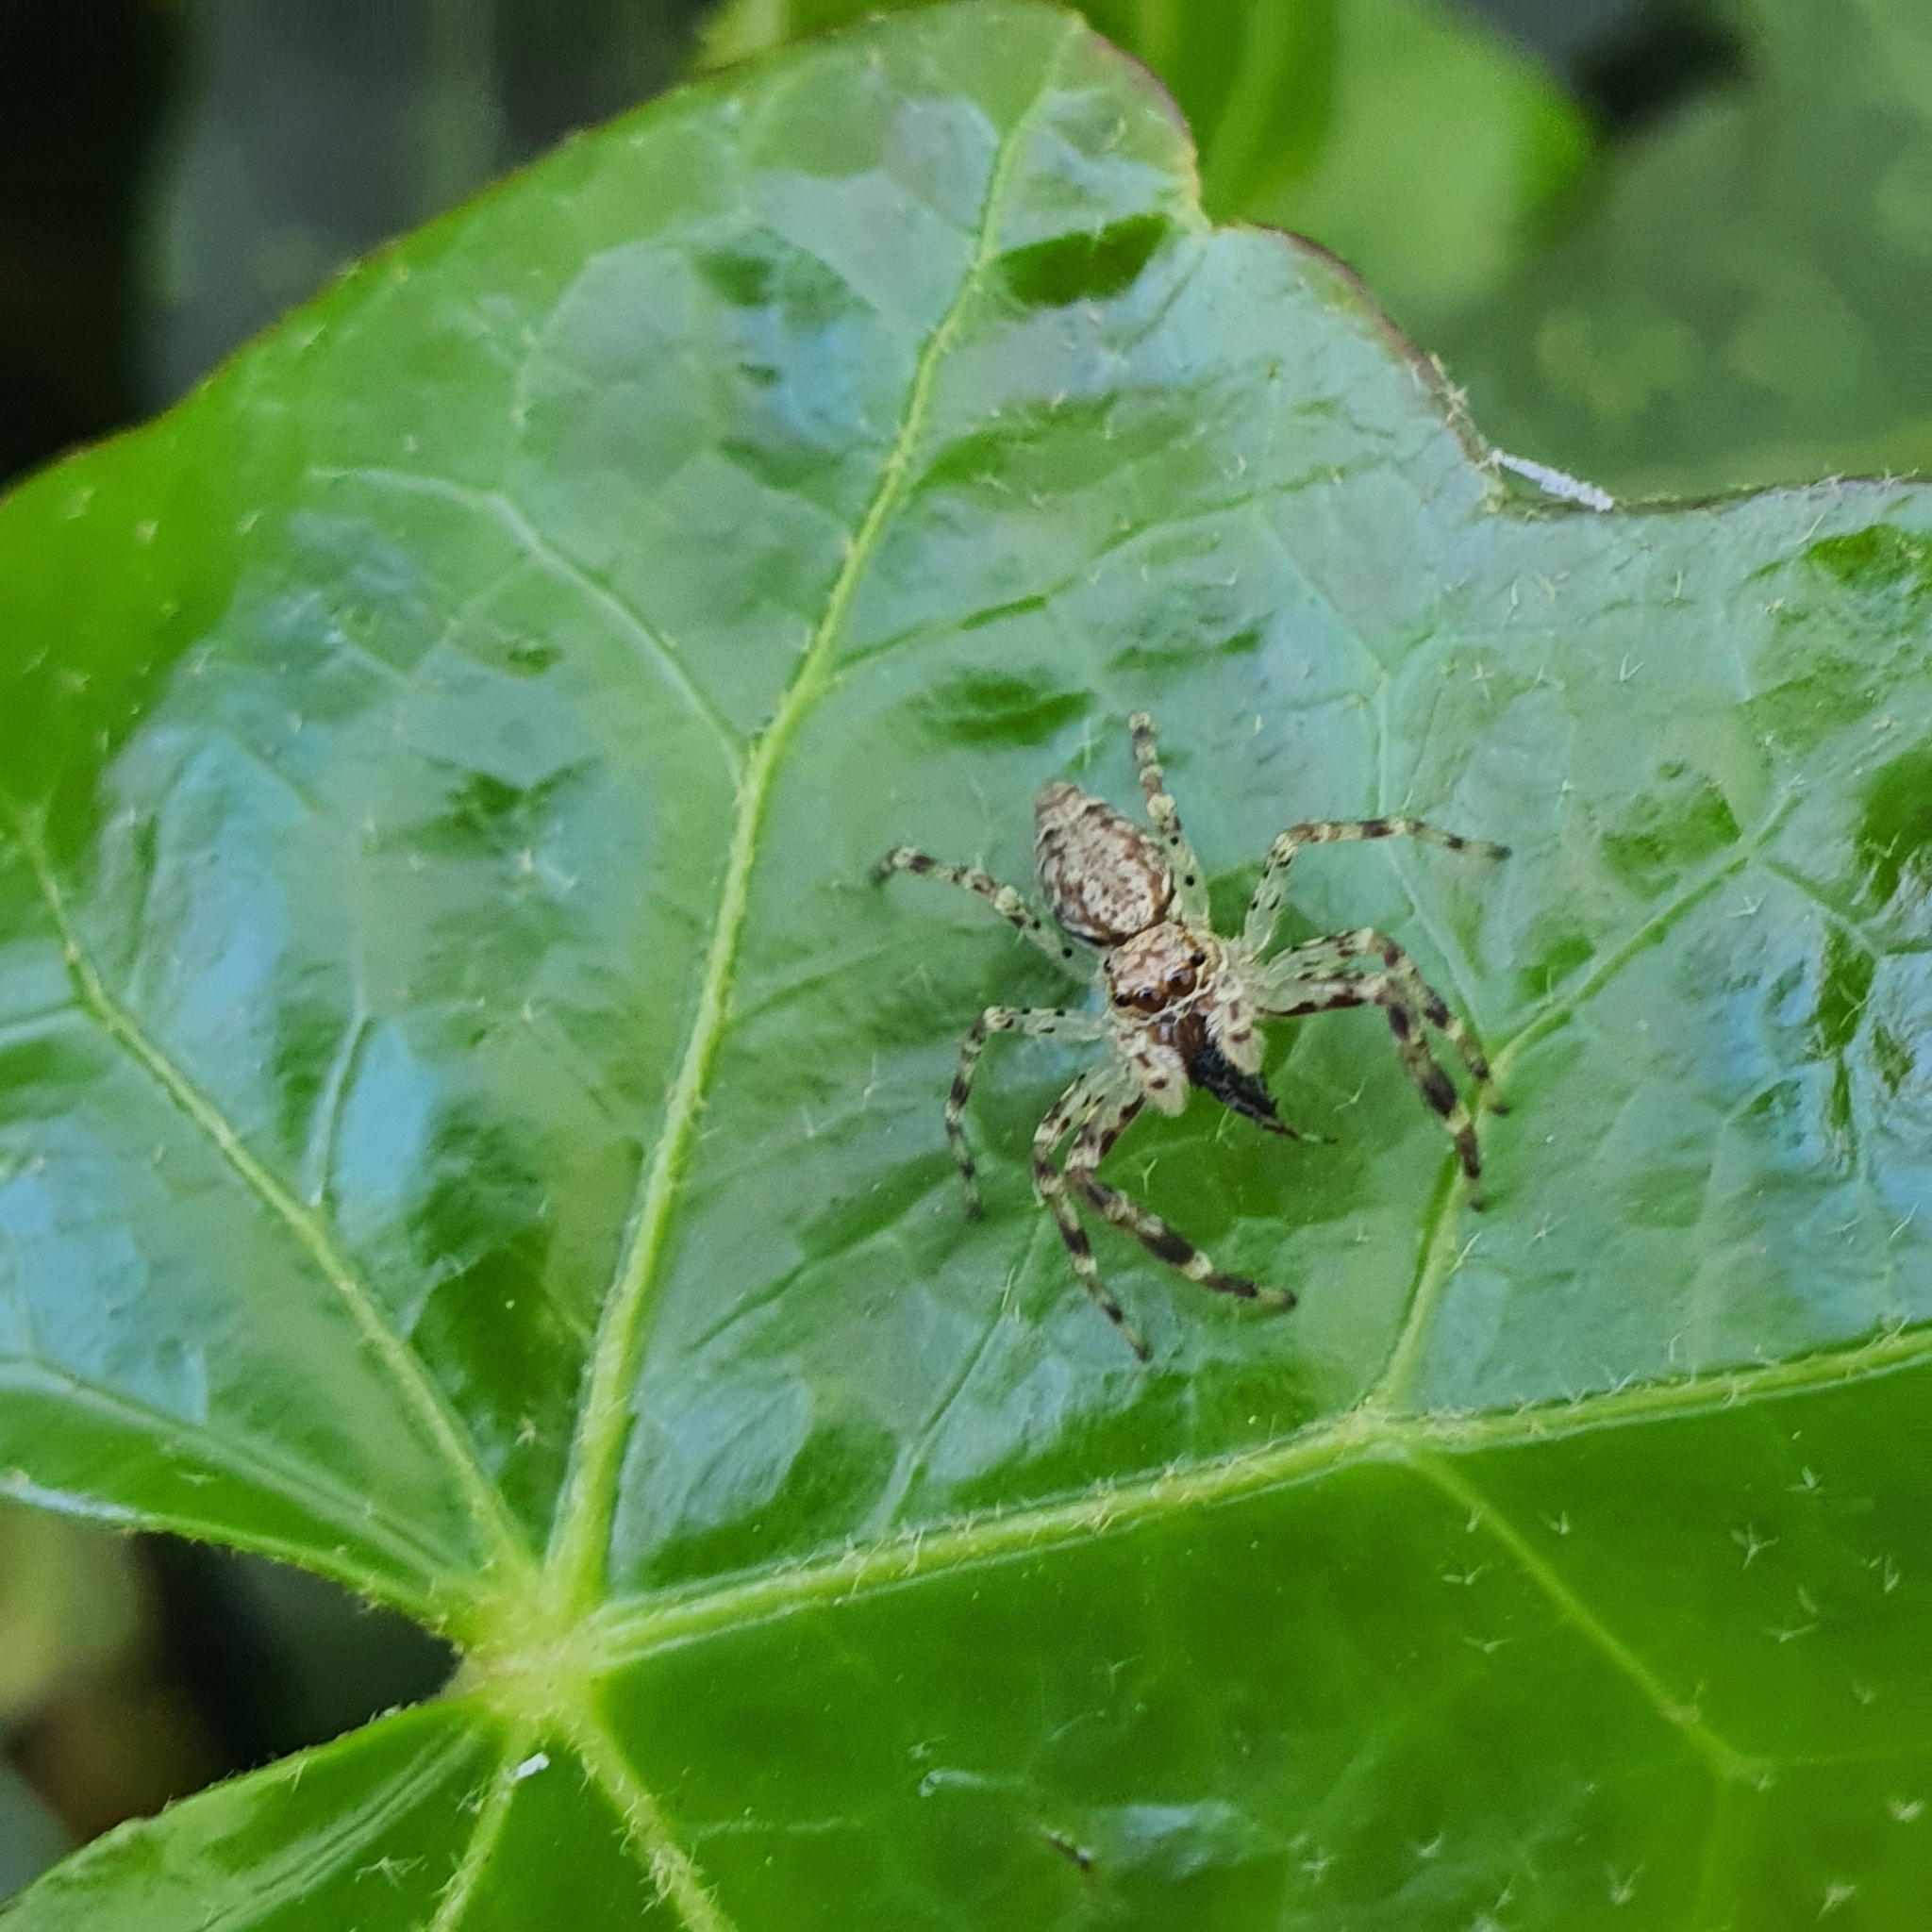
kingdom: Animalia
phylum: Arthropoda
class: Arachnida
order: Araneae
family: Salticidae
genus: Helpis
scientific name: Helpis minitabunda
